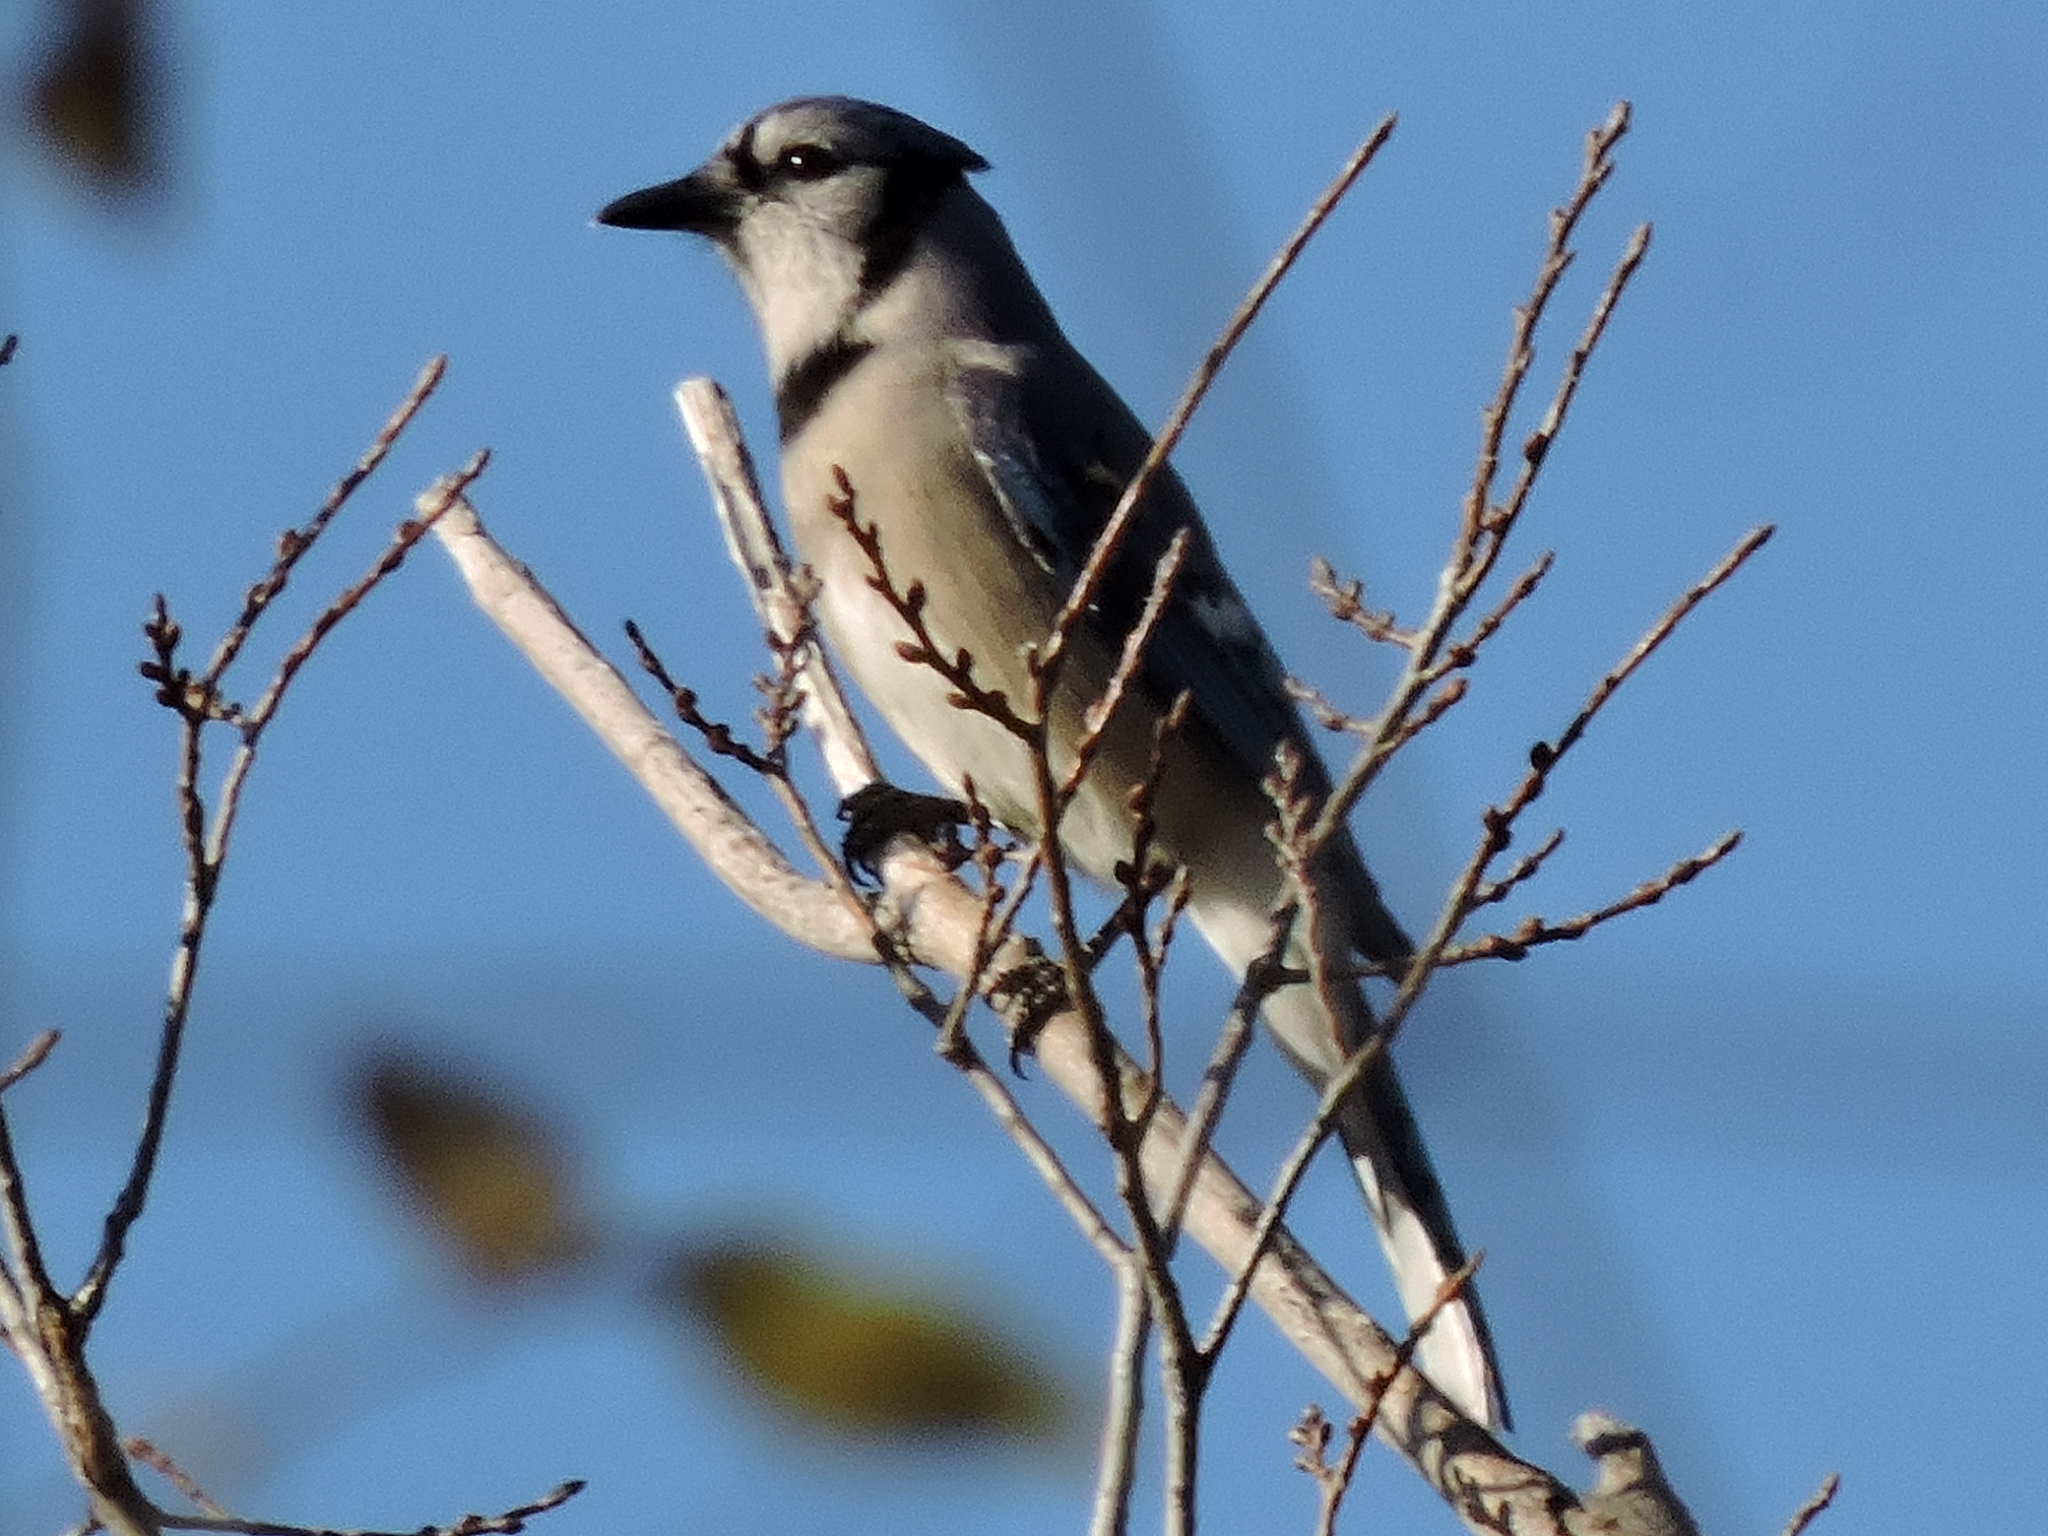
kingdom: Animalia
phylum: Chordata
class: Aves
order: Passeriformes
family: Corvidae
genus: Cyanocitta
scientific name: Cyanocitta cristata
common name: Blue jay
